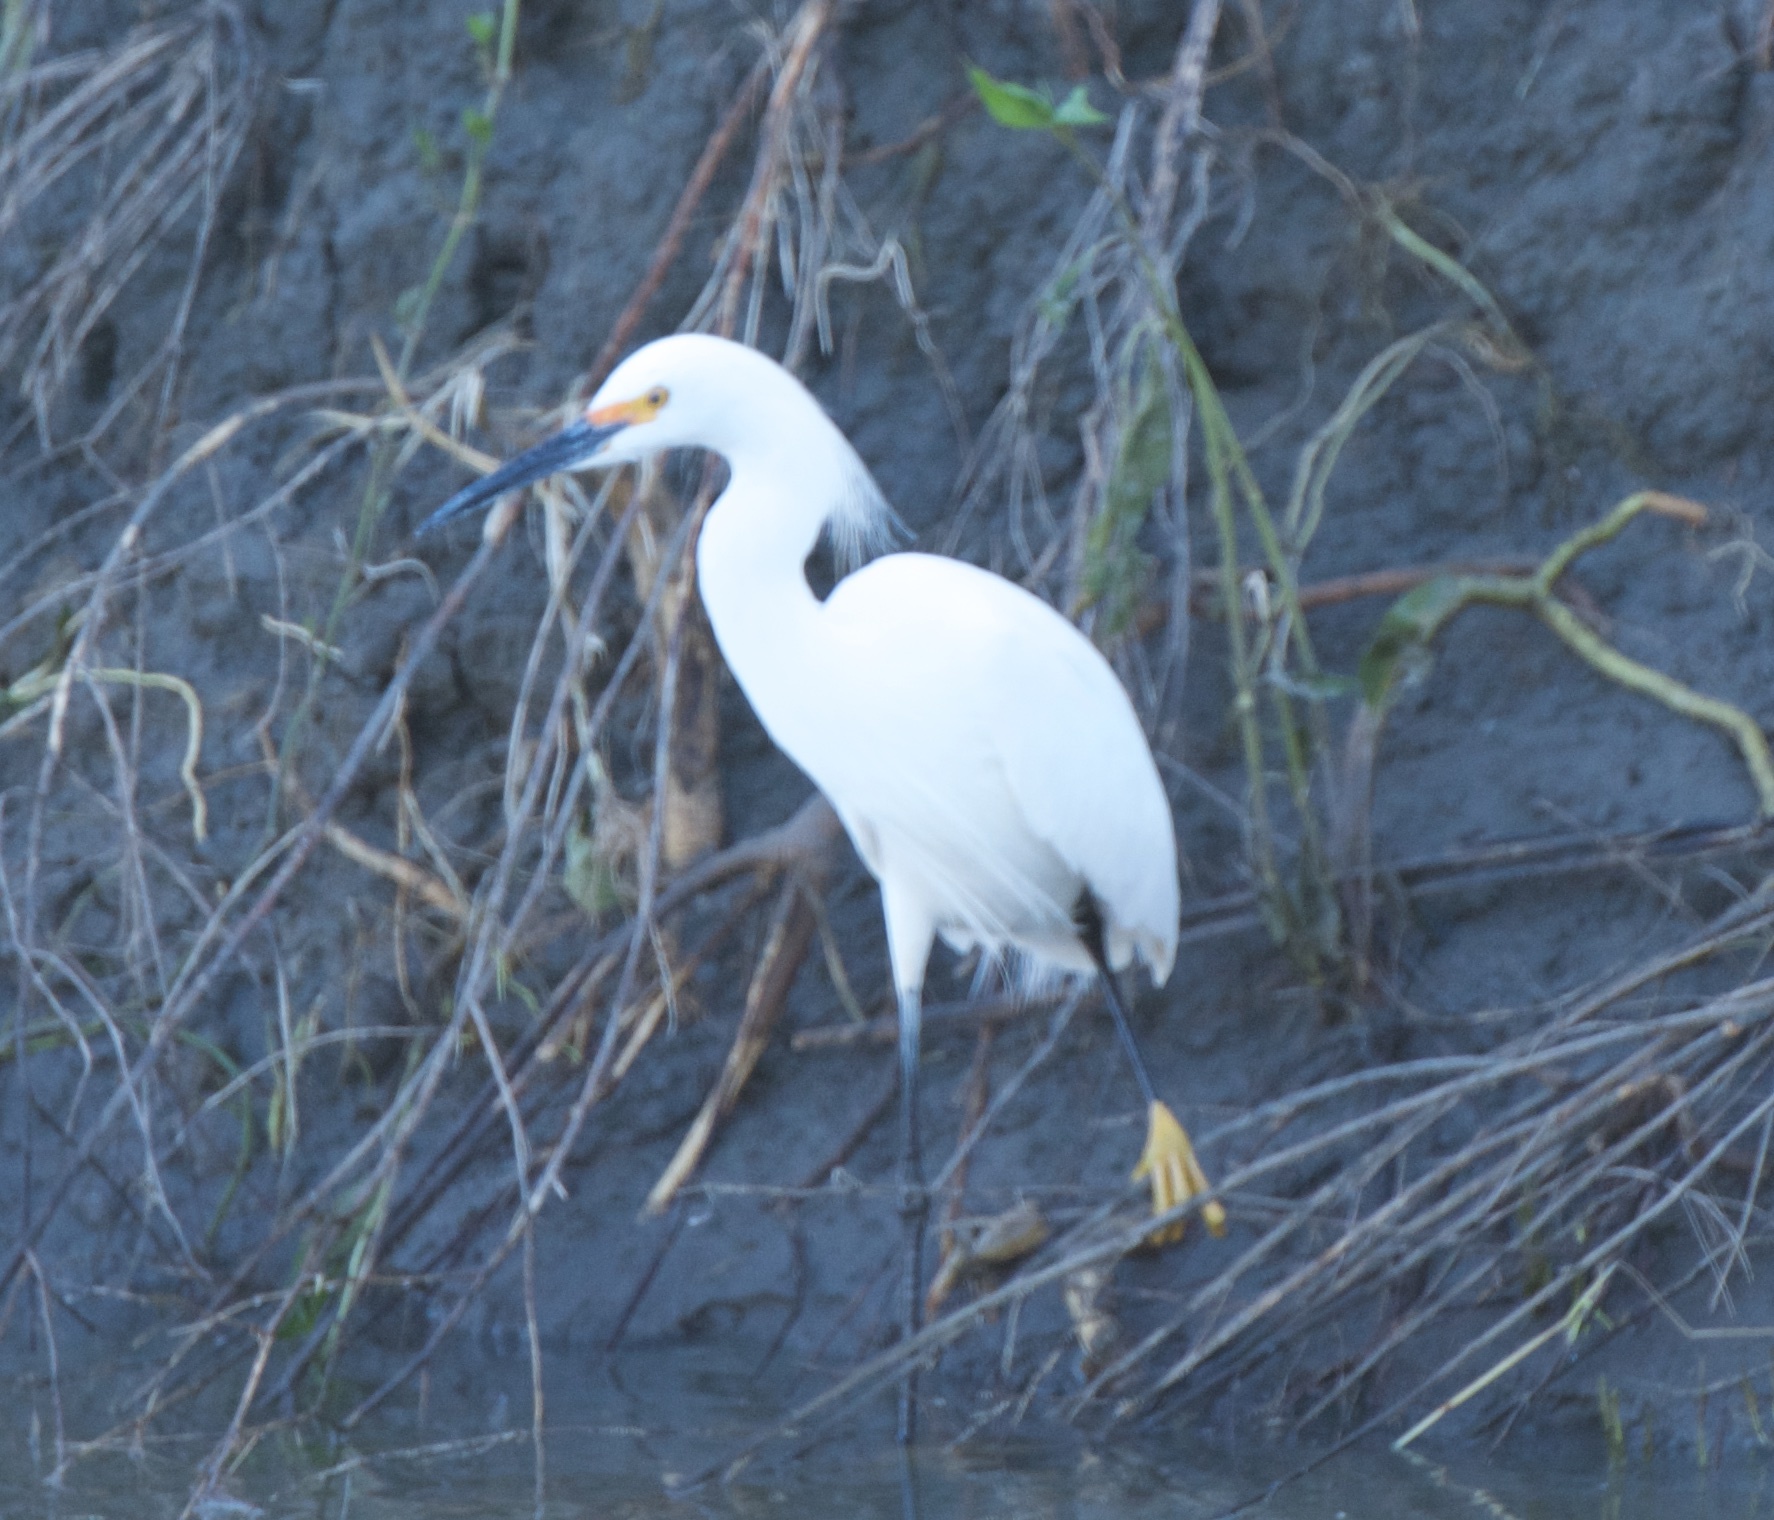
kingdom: Animalia
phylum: Chordata
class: Aves
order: Pelecaniformes
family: Ardeidae
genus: Egretta
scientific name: Egretta thula
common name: Snowy egret
